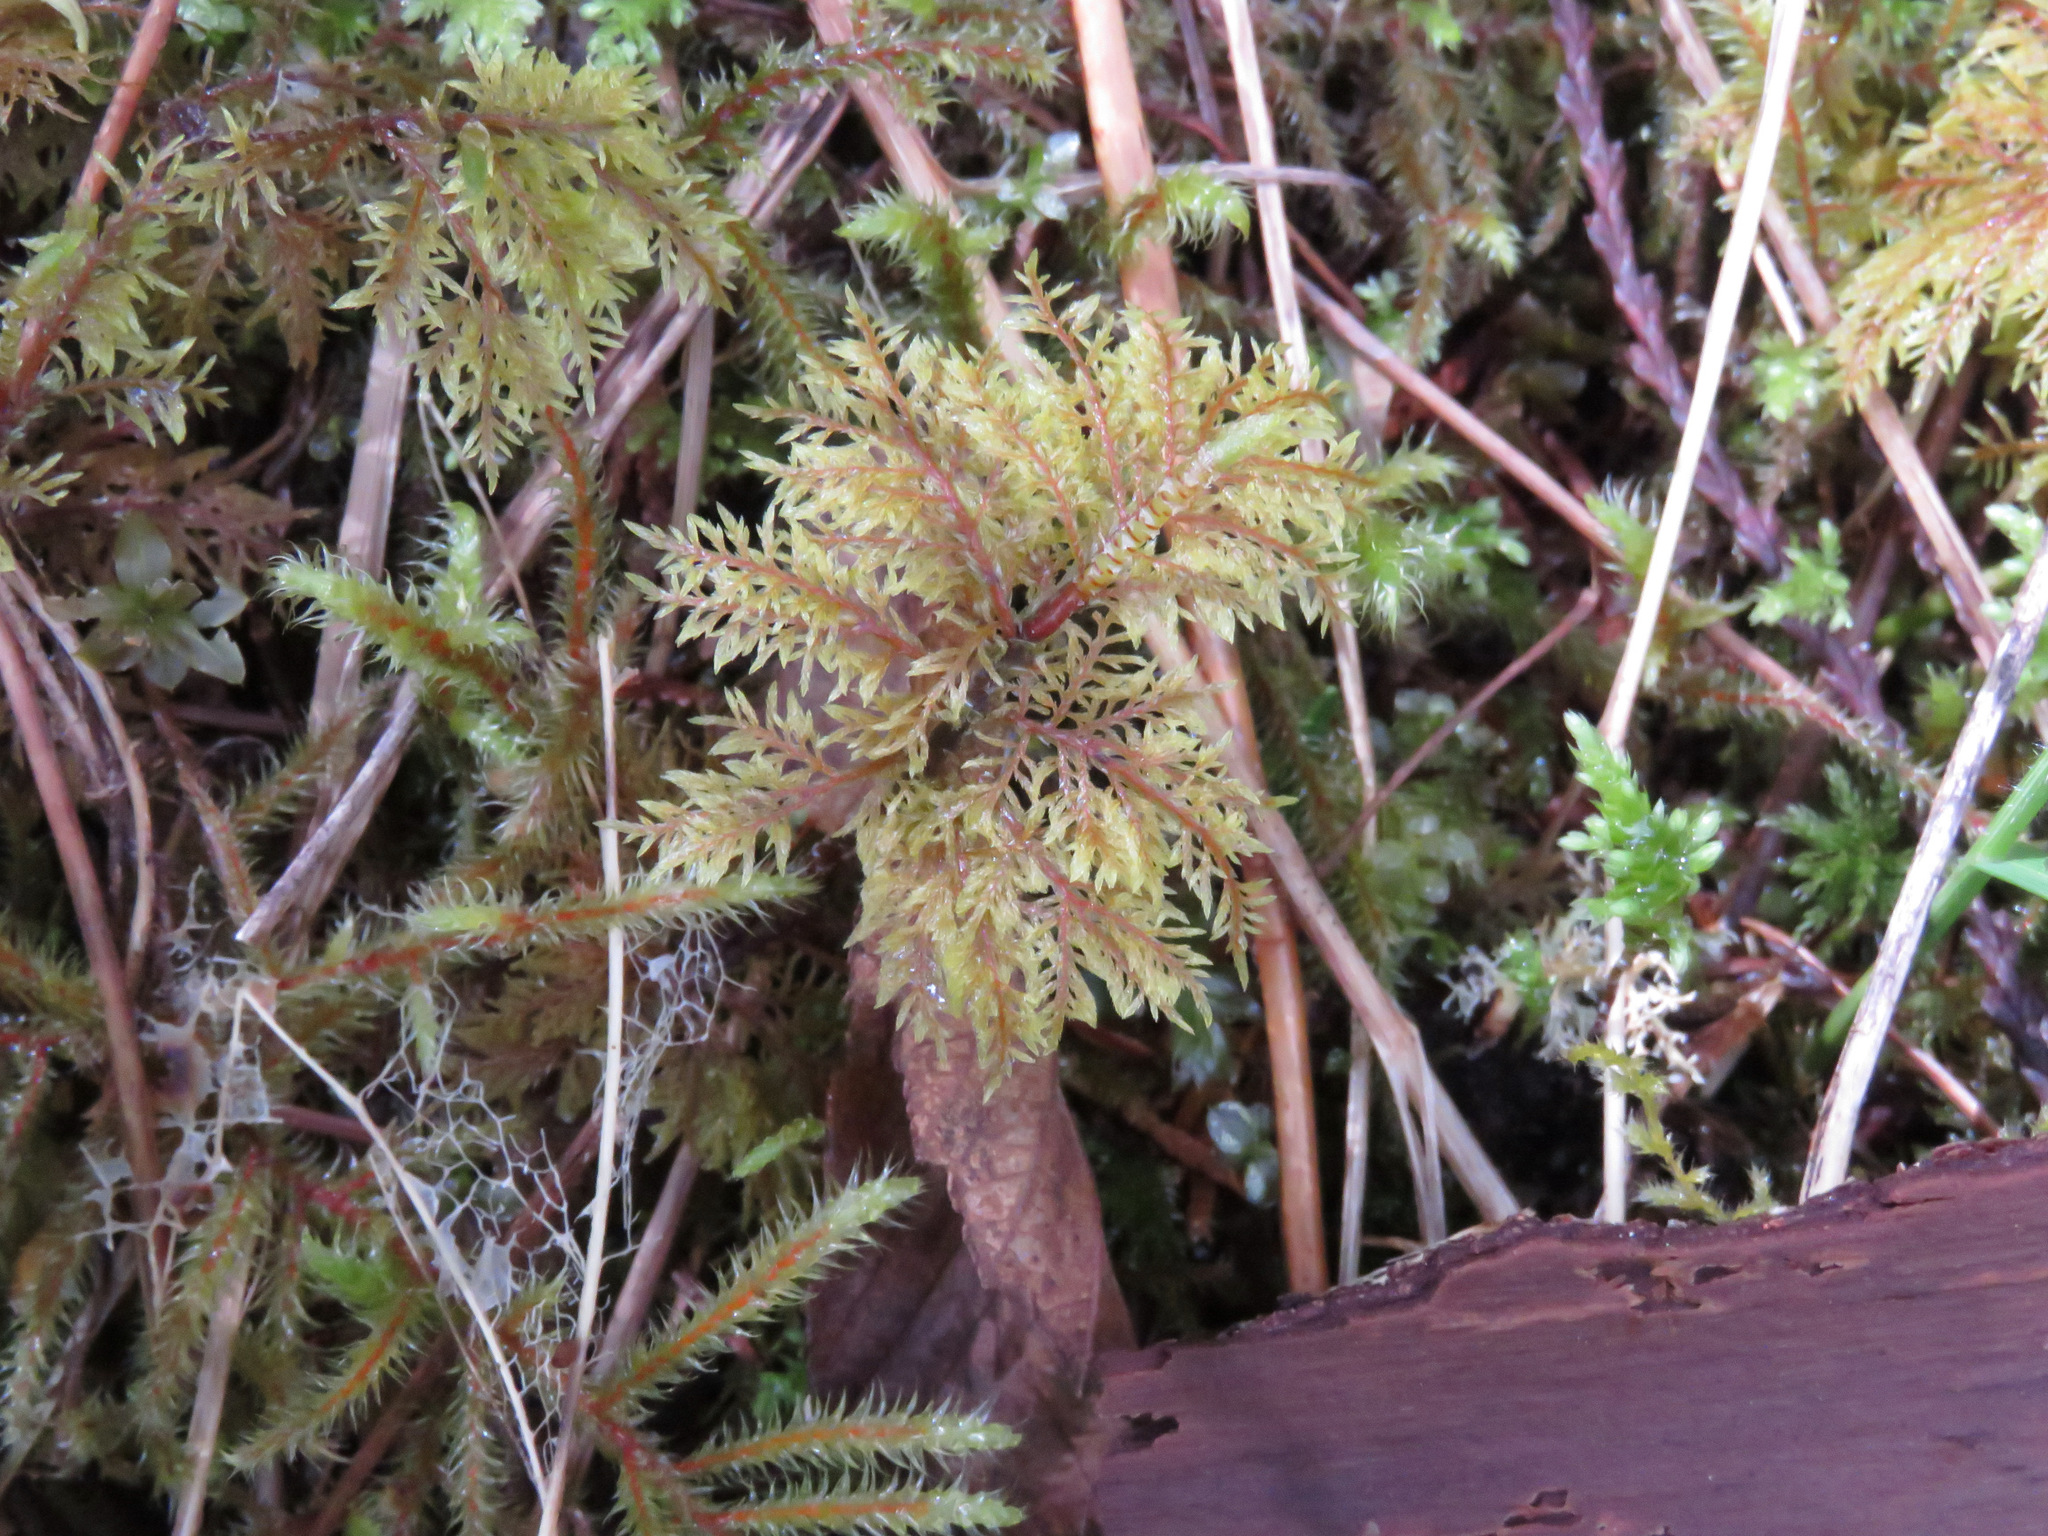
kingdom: Plantae
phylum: Bryophyta
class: Bryopsida
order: Hypnales
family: Hylocomiaceae
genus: Hylocomium
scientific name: Hylocomium splendens
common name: Stairstep moss
